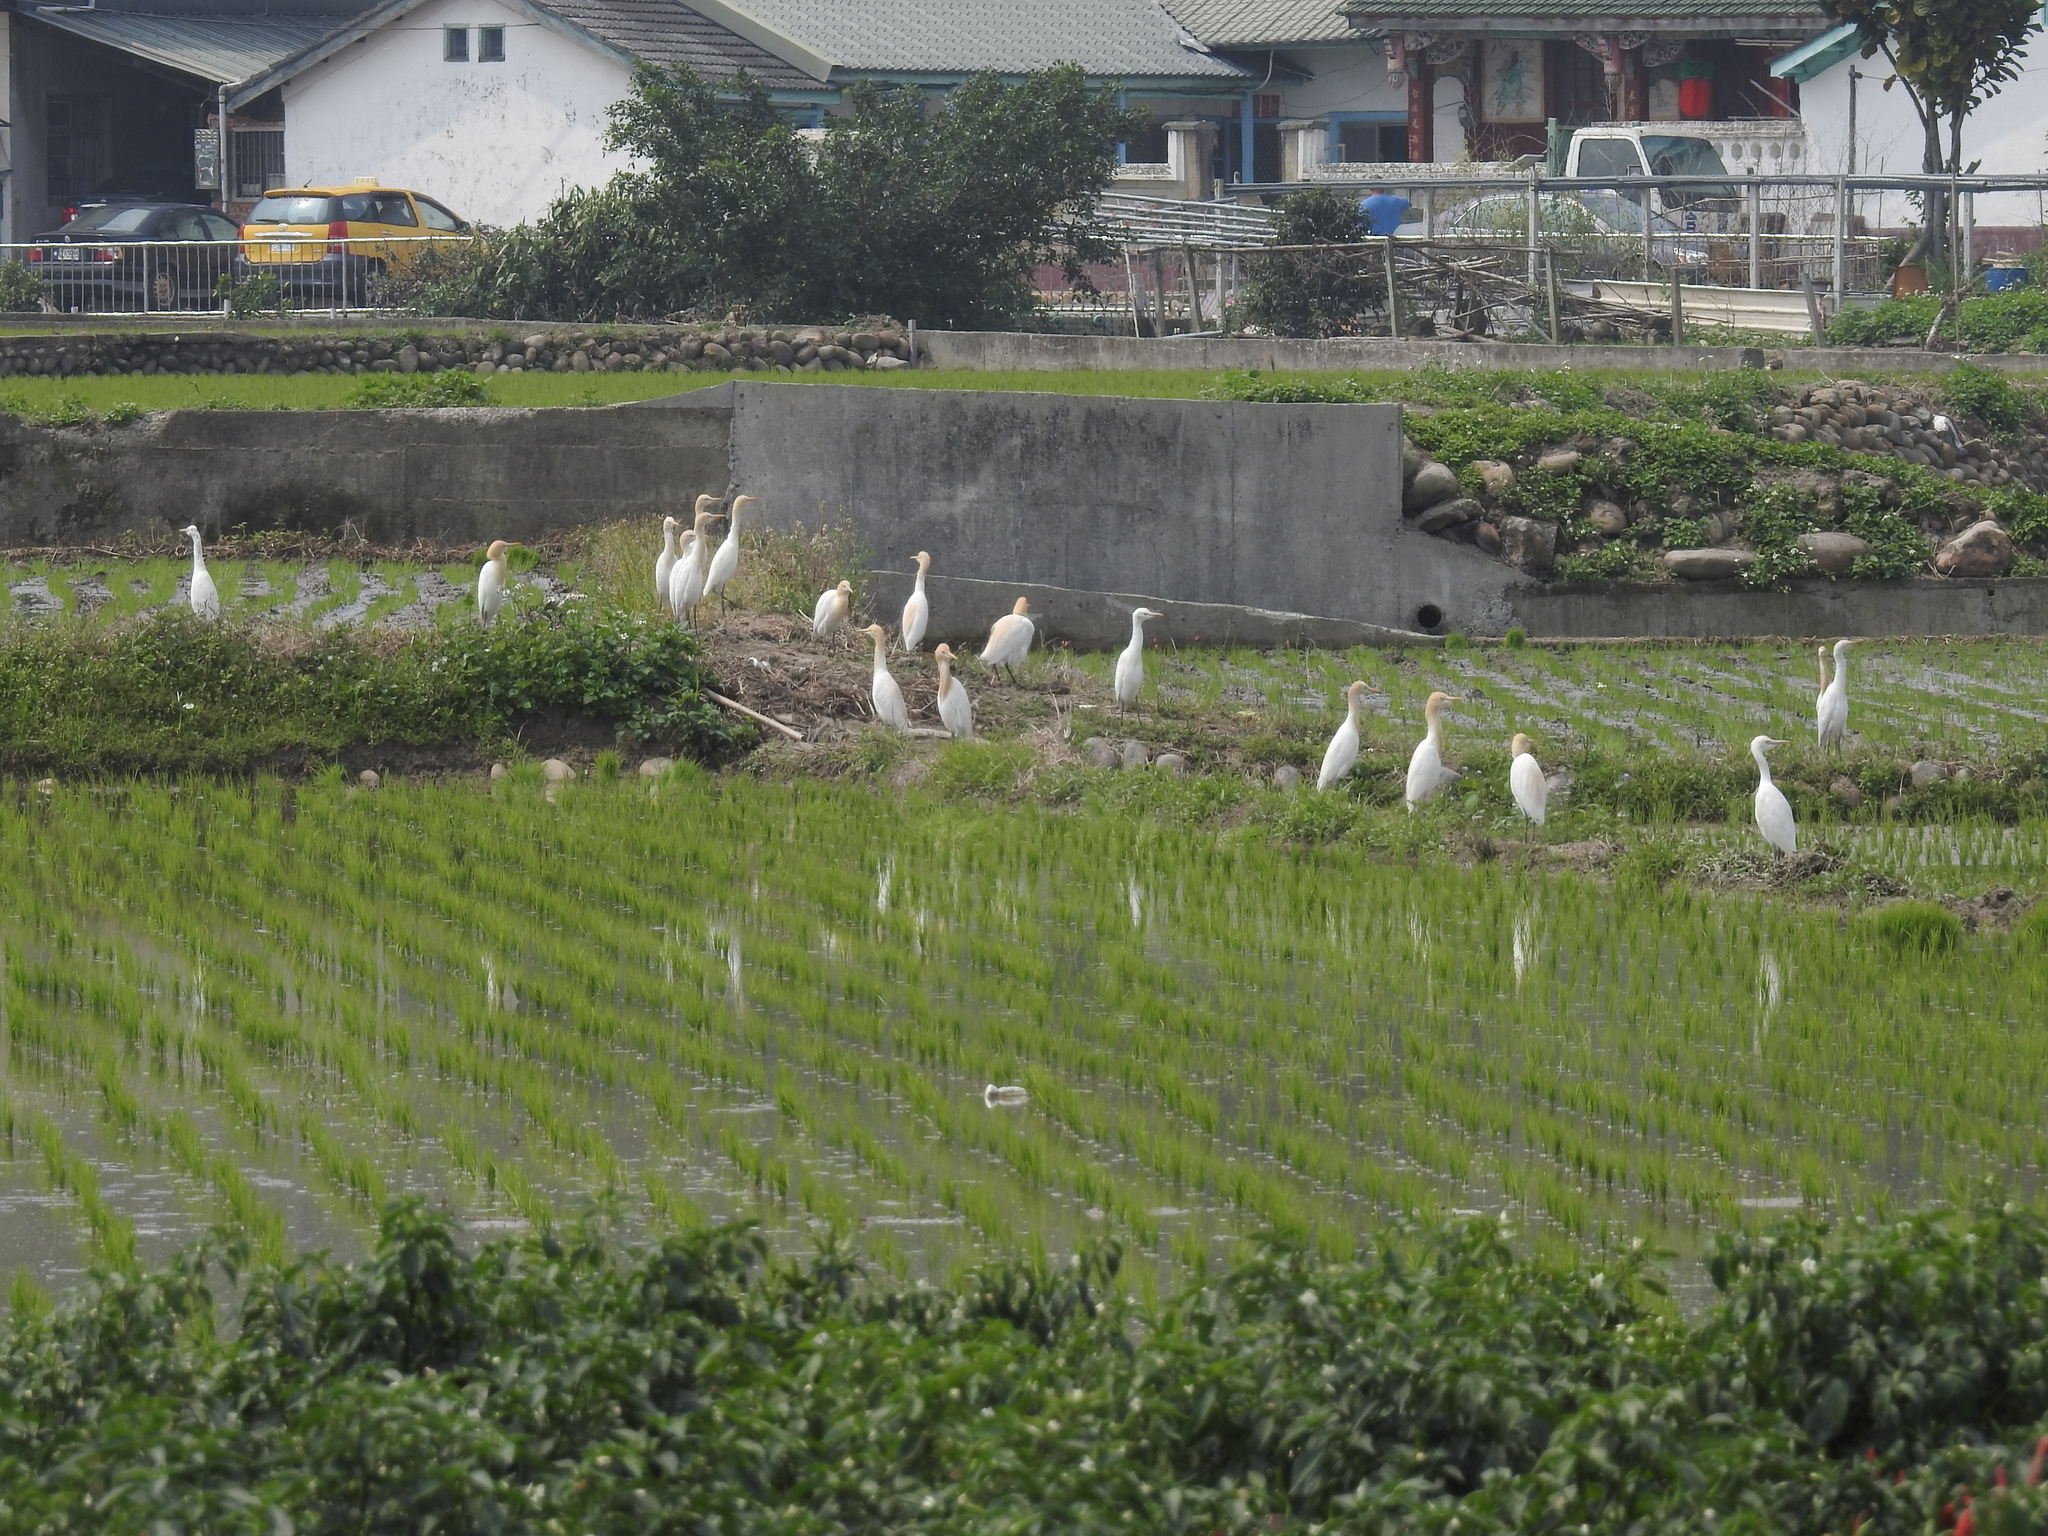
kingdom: Animalia
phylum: Chordata
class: Aves
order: Pelecaniformes
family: Ardeidae
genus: Bubulcus
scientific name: Bubulcus coromandus
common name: Eastern cattle egret
